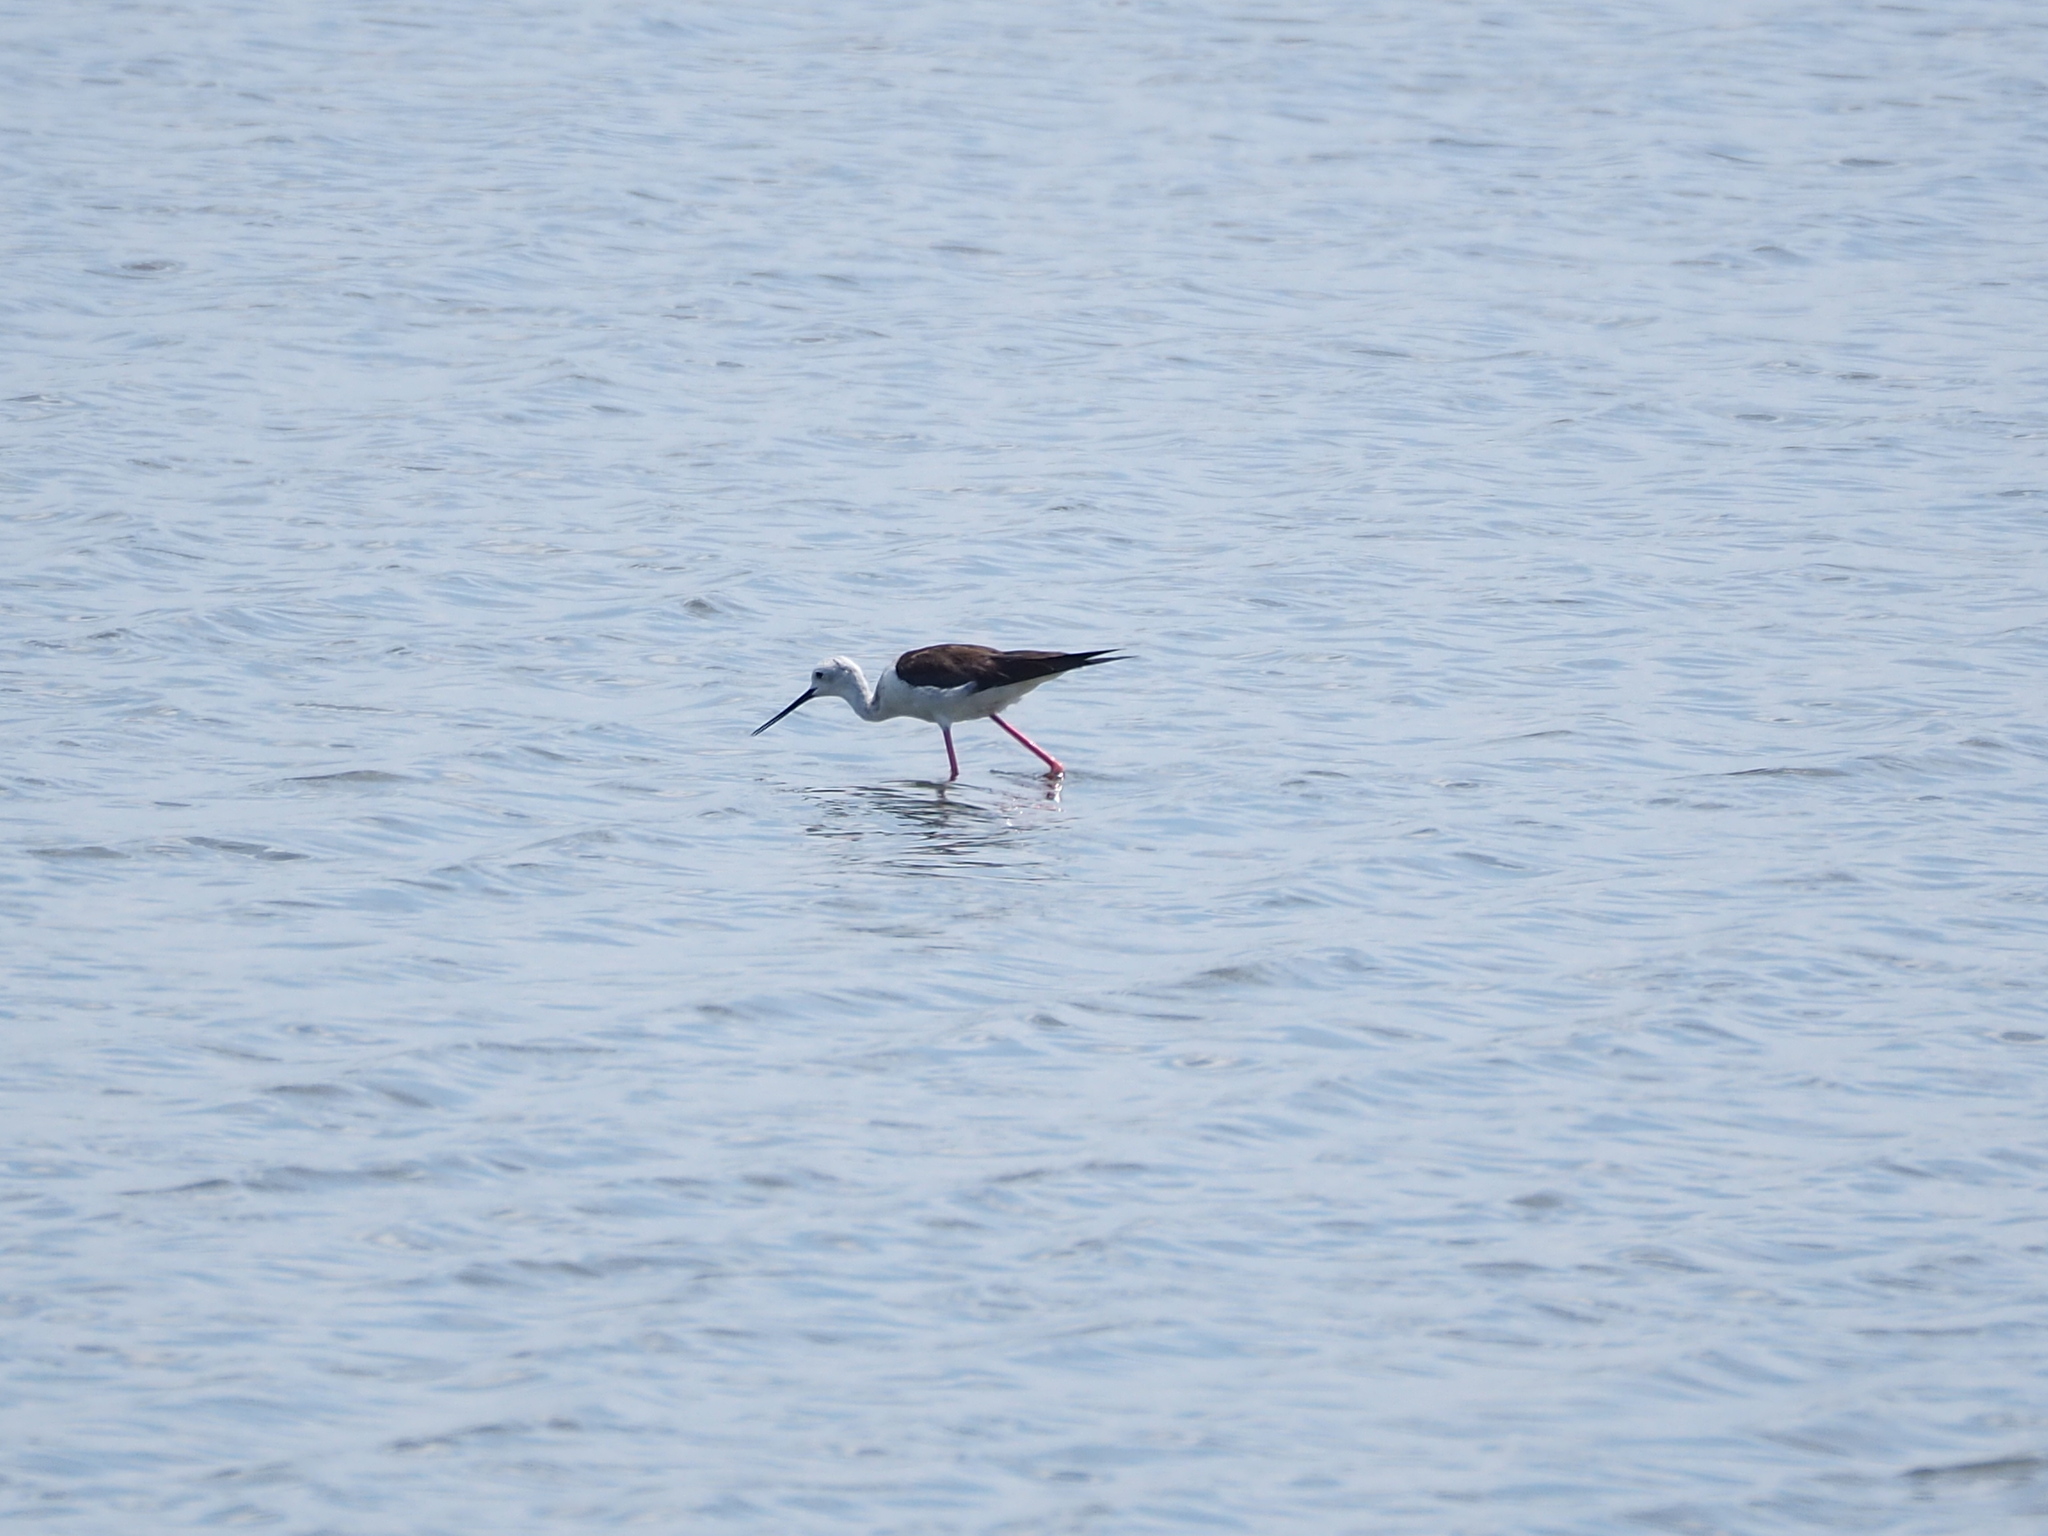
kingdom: Animalia
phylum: Chordata
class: Aves
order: Charadriiformes
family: Recurvirostridae
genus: Himantopus
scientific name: Himantopus himantopus
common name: Black-winged stilt
